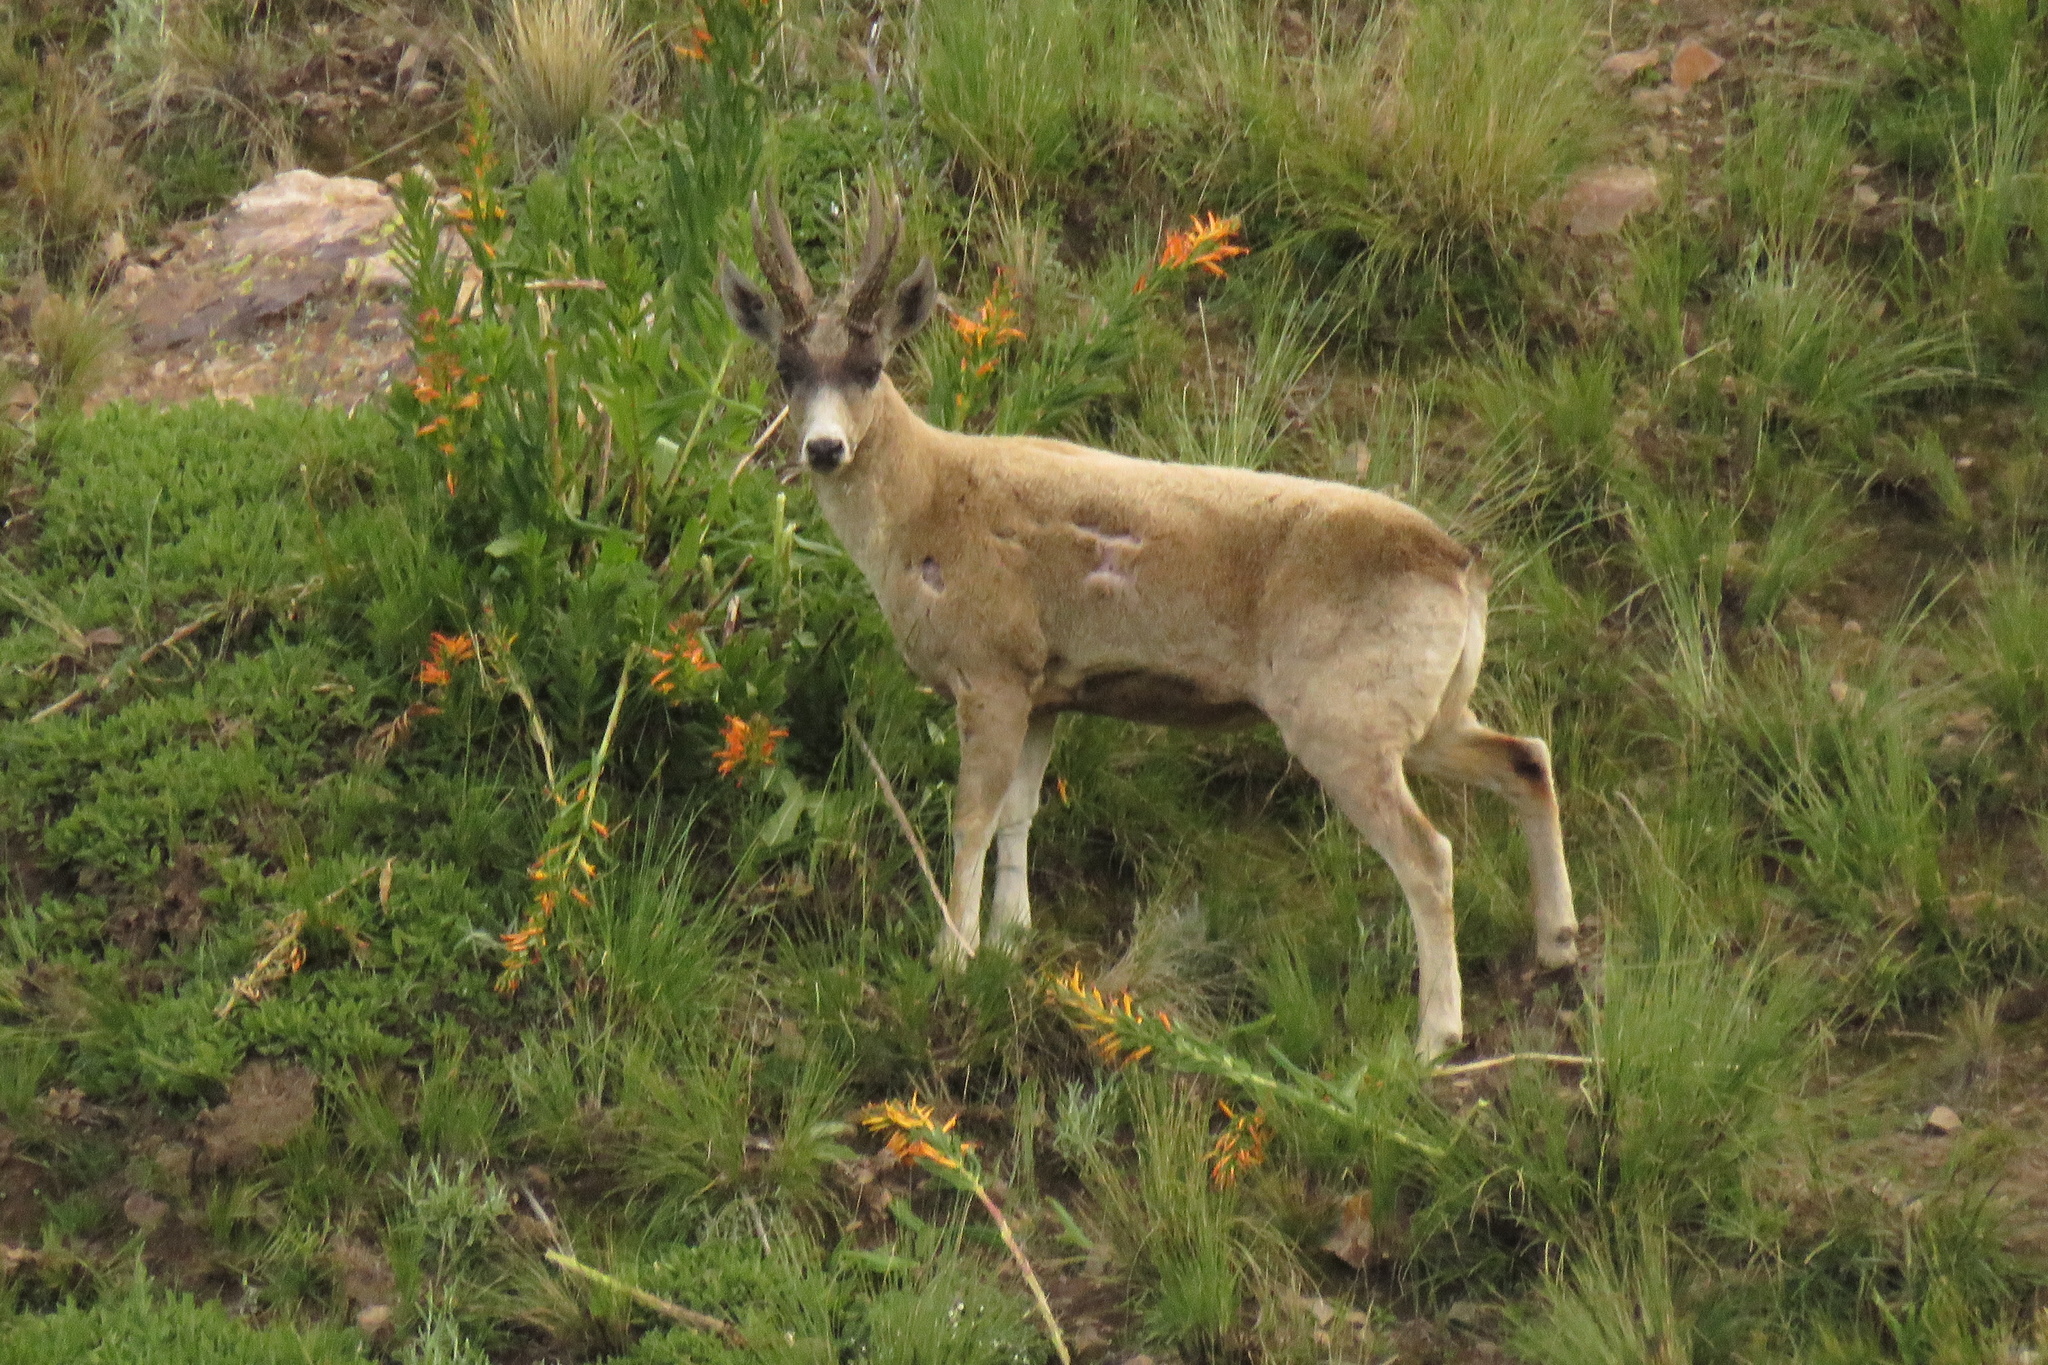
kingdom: Animalia
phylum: Chordata
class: Mammalia
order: Artiodactyla
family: Cervidae
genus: Hippocamelus
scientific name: Hippocamelus antisensis
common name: Taruca
